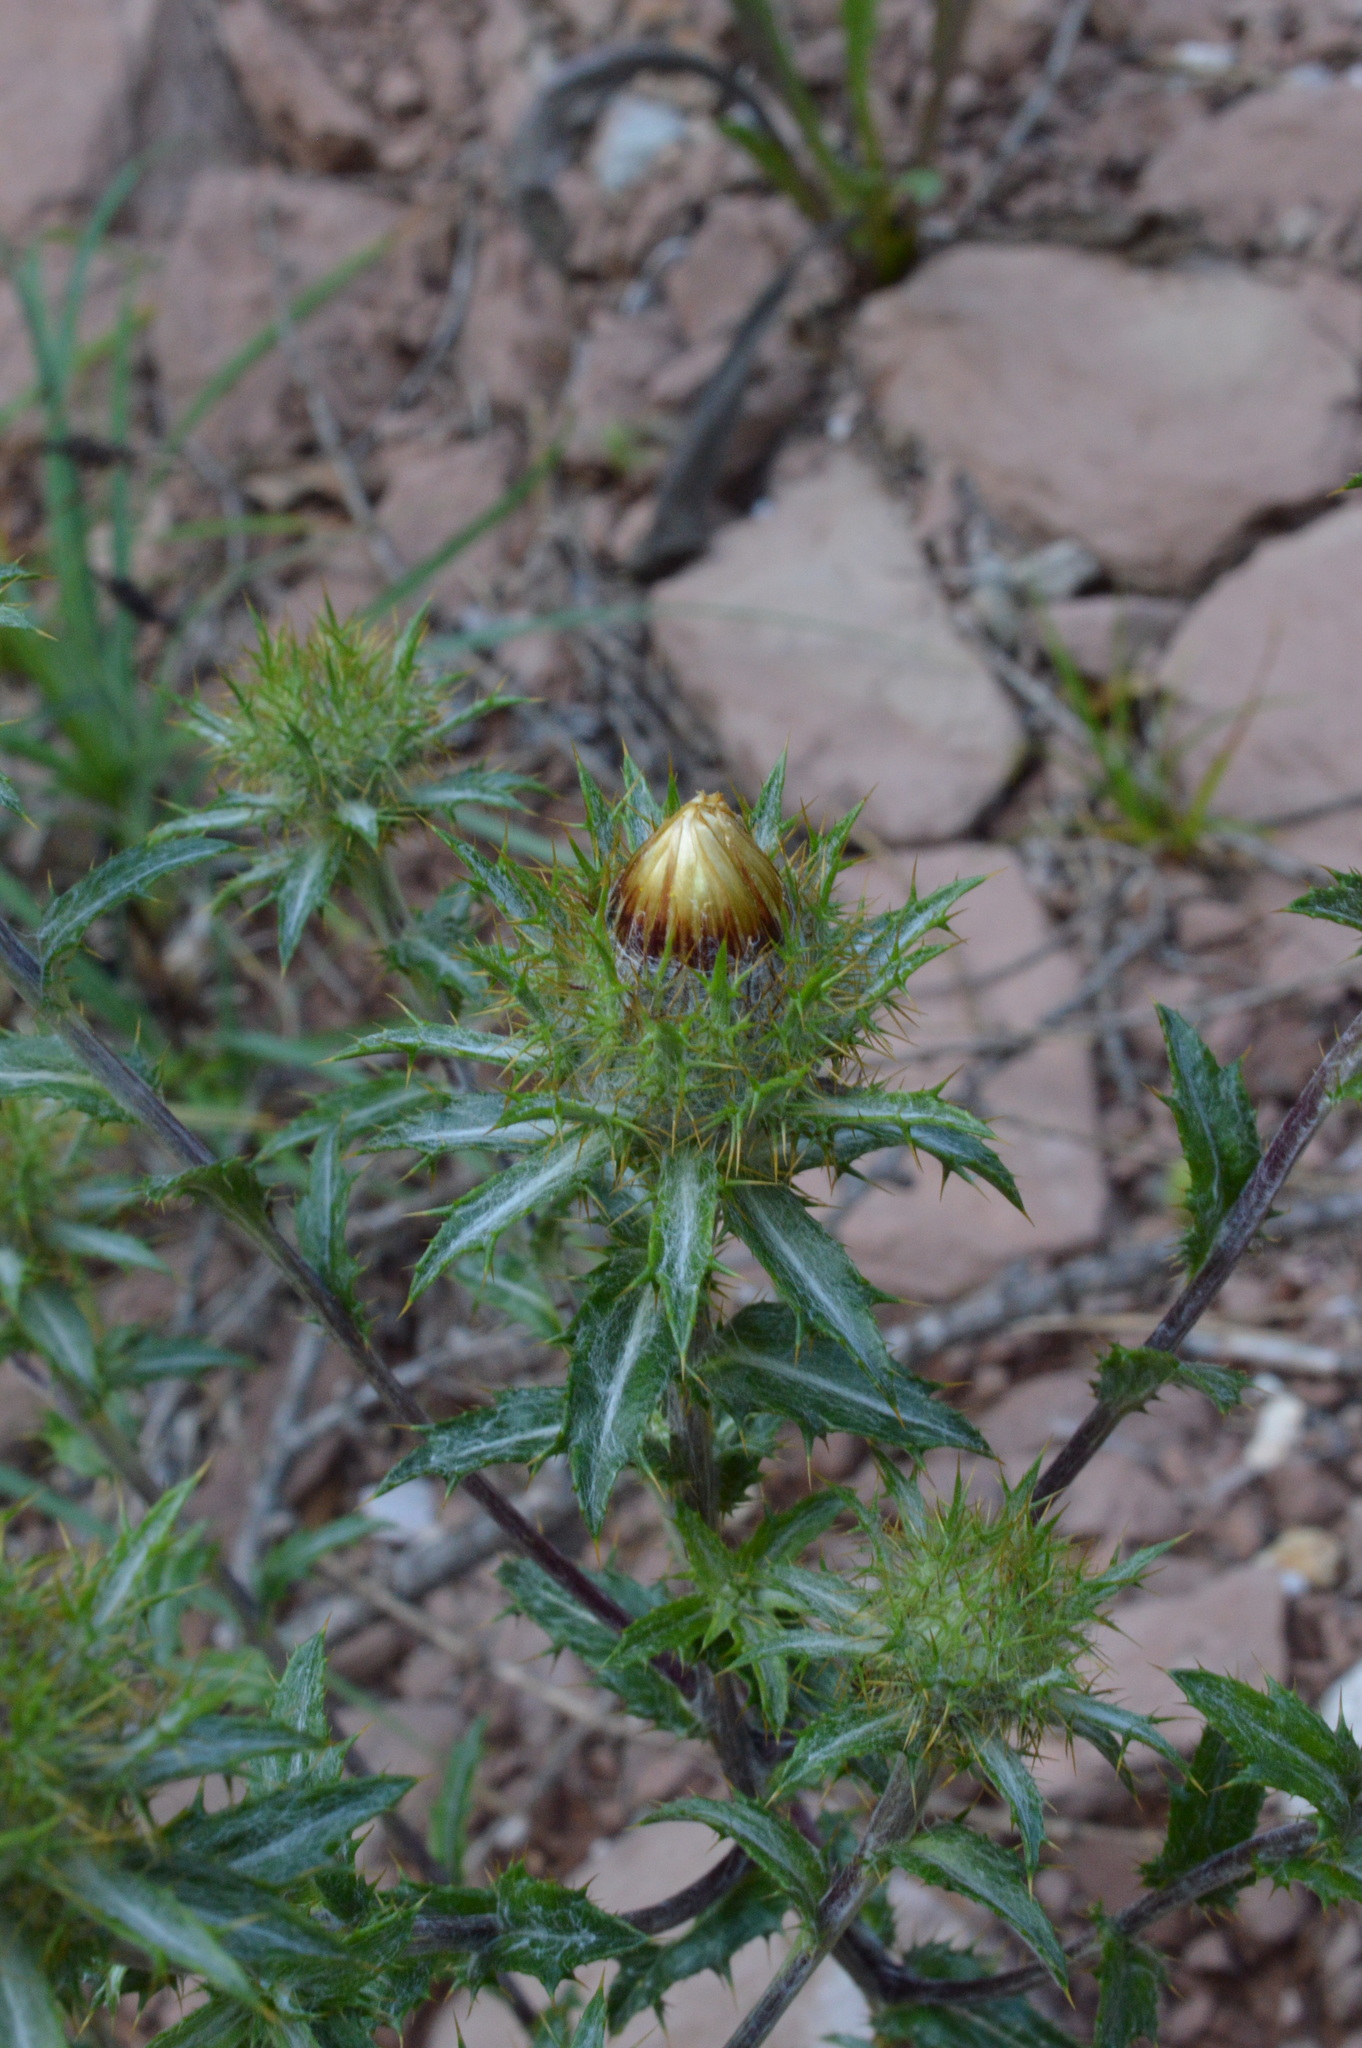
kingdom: Plantae
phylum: Tracheophyta
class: Magnoliopsida
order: Asterales
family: Asteraceae
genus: Carlina
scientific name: Carlina vulgaris
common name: Carline thistle
